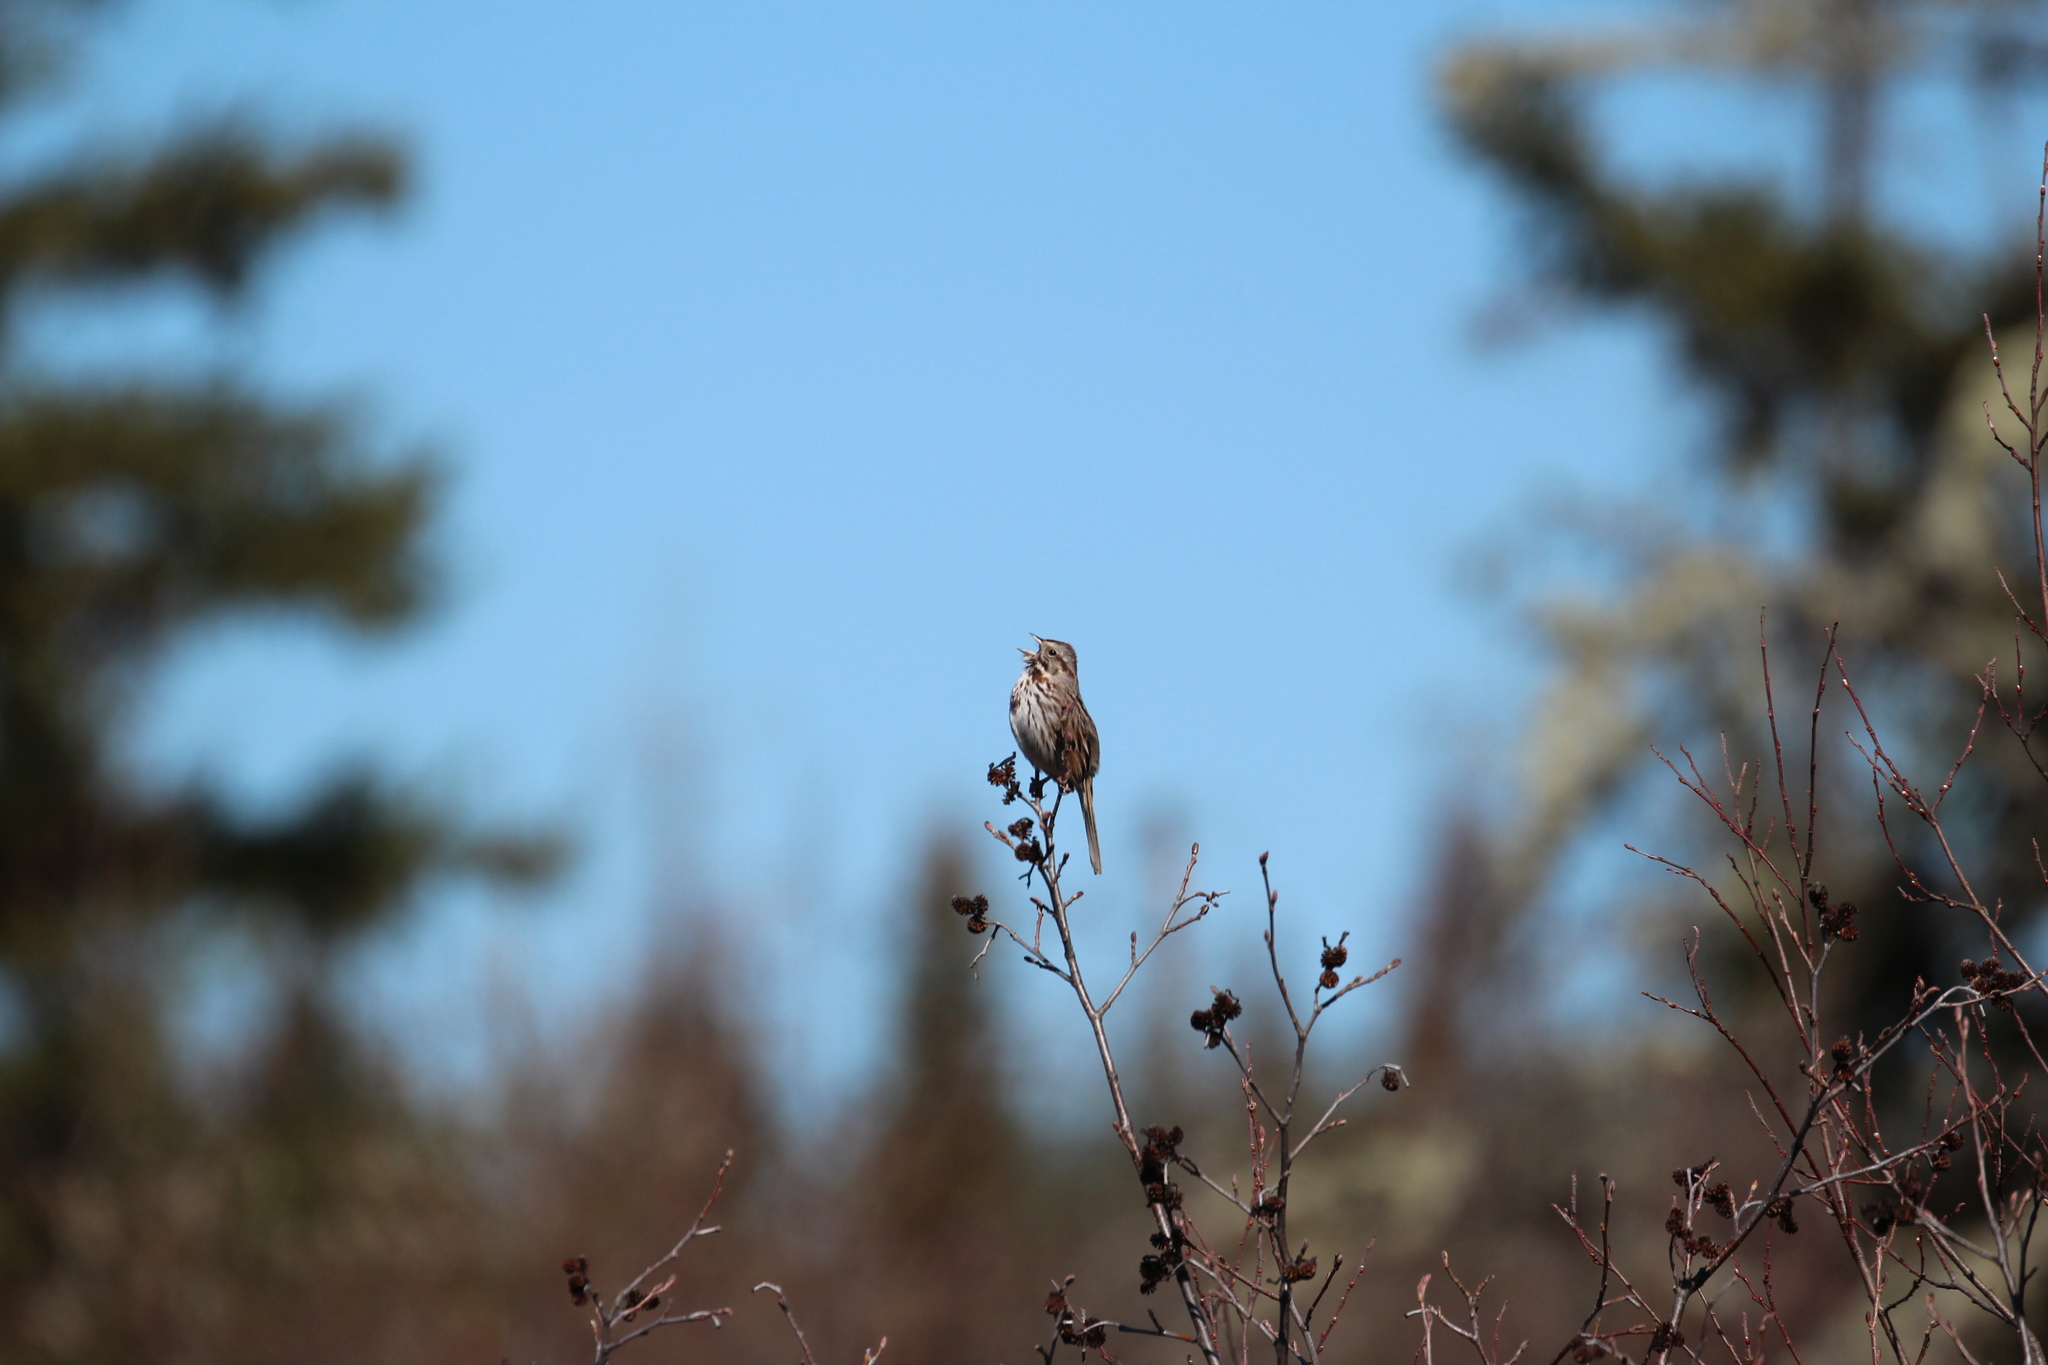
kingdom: Animalia
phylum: Chordata
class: Aves
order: Passeriformes
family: Passerellidae
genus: Melospiza
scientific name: Melospiza melodia
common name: Song sparrow
